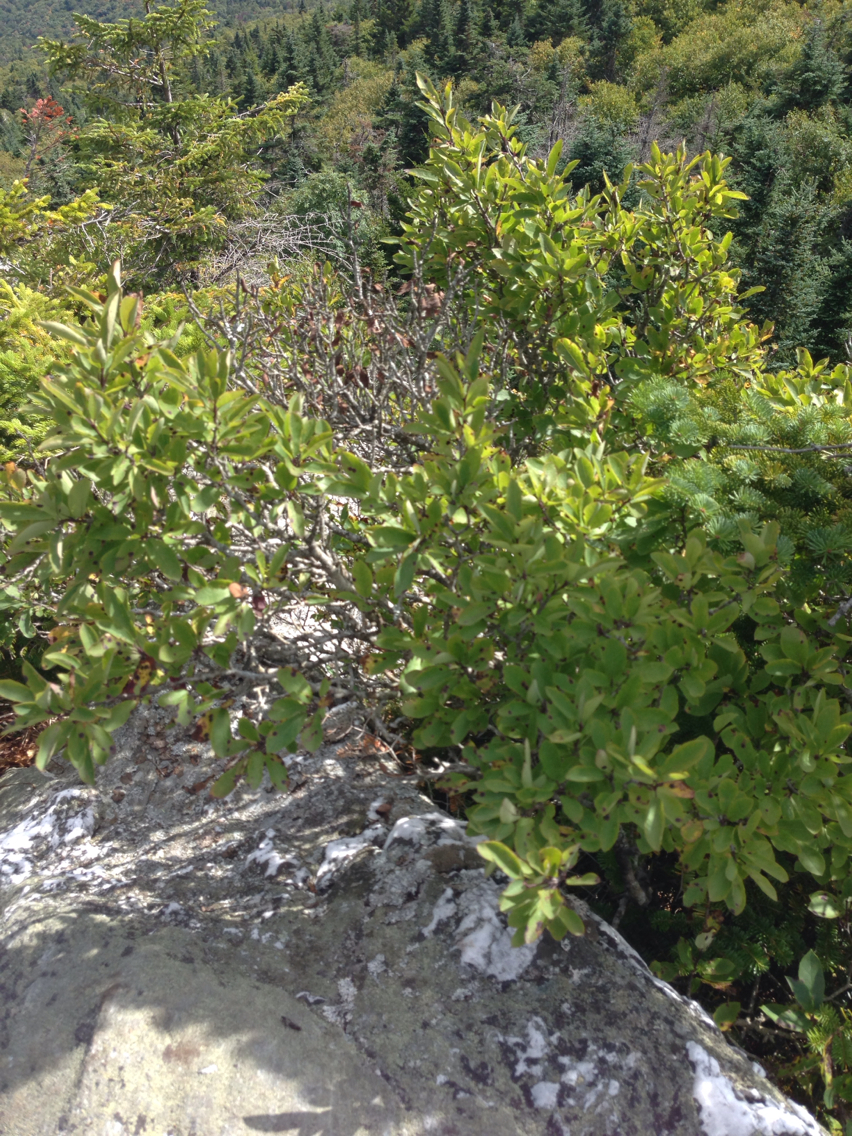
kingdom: Plantae
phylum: Tracheophyta
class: Magnoliopsida
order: Aquifoliales
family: Aquifoliaceae
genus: Ilex
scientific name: Ilex mucronata
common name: Catberry
